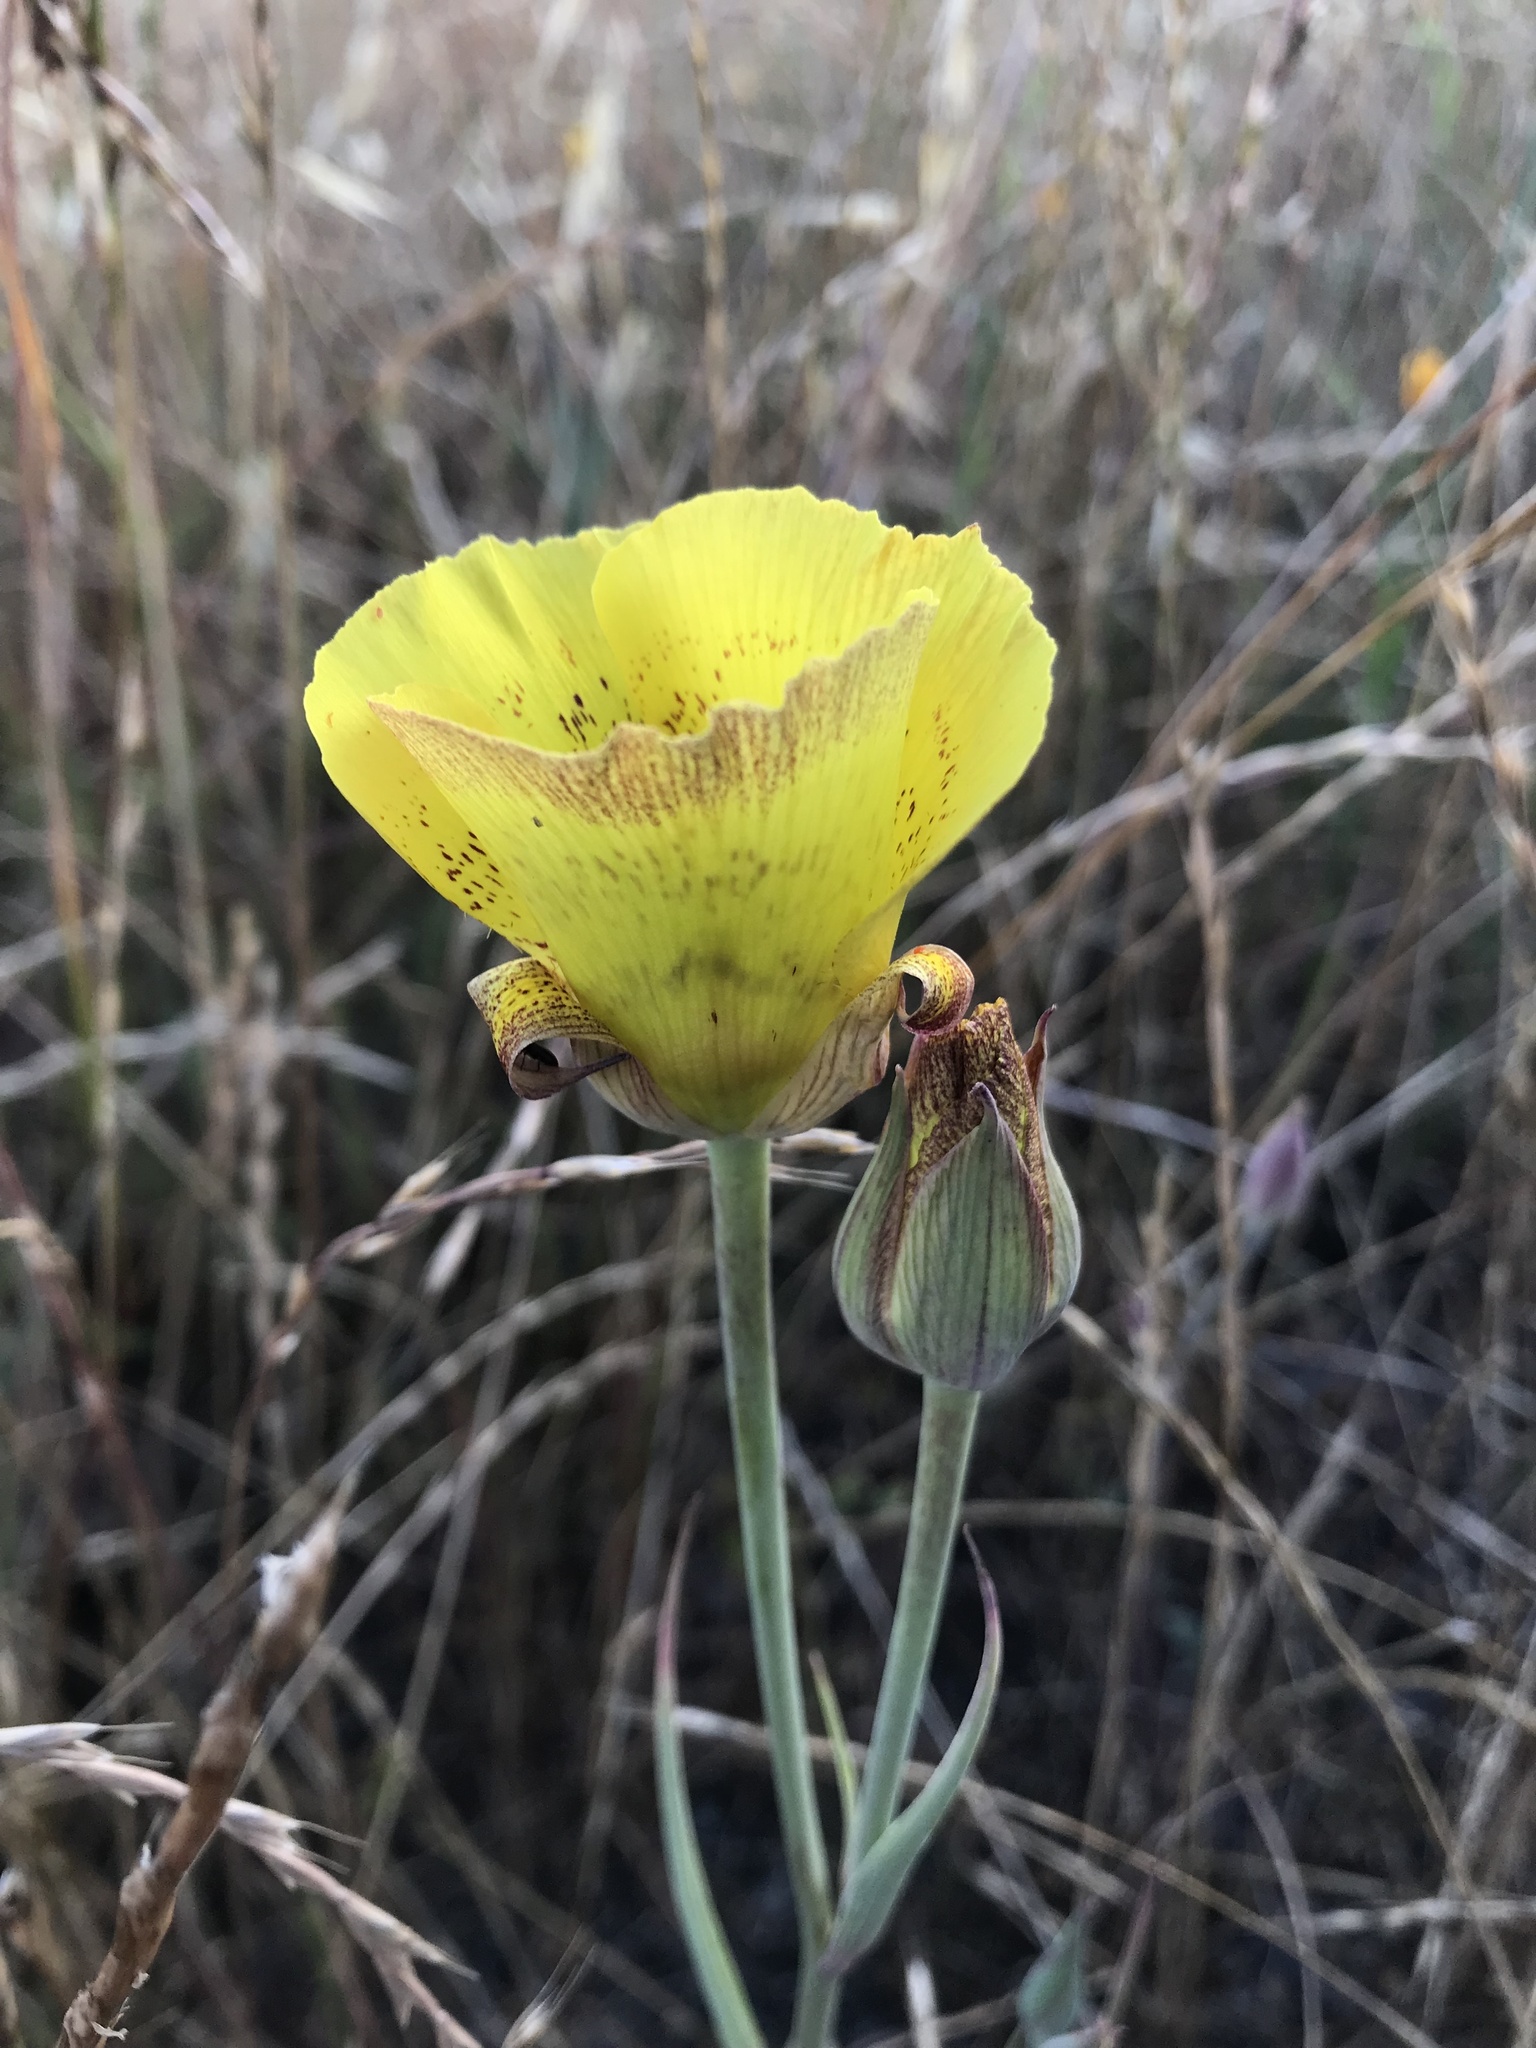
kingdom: Plantae
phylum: Tracheophyta
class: Liliopsida
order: Liliales
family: Liliaceae
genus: Calochortus
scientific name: Calochortus luteus
